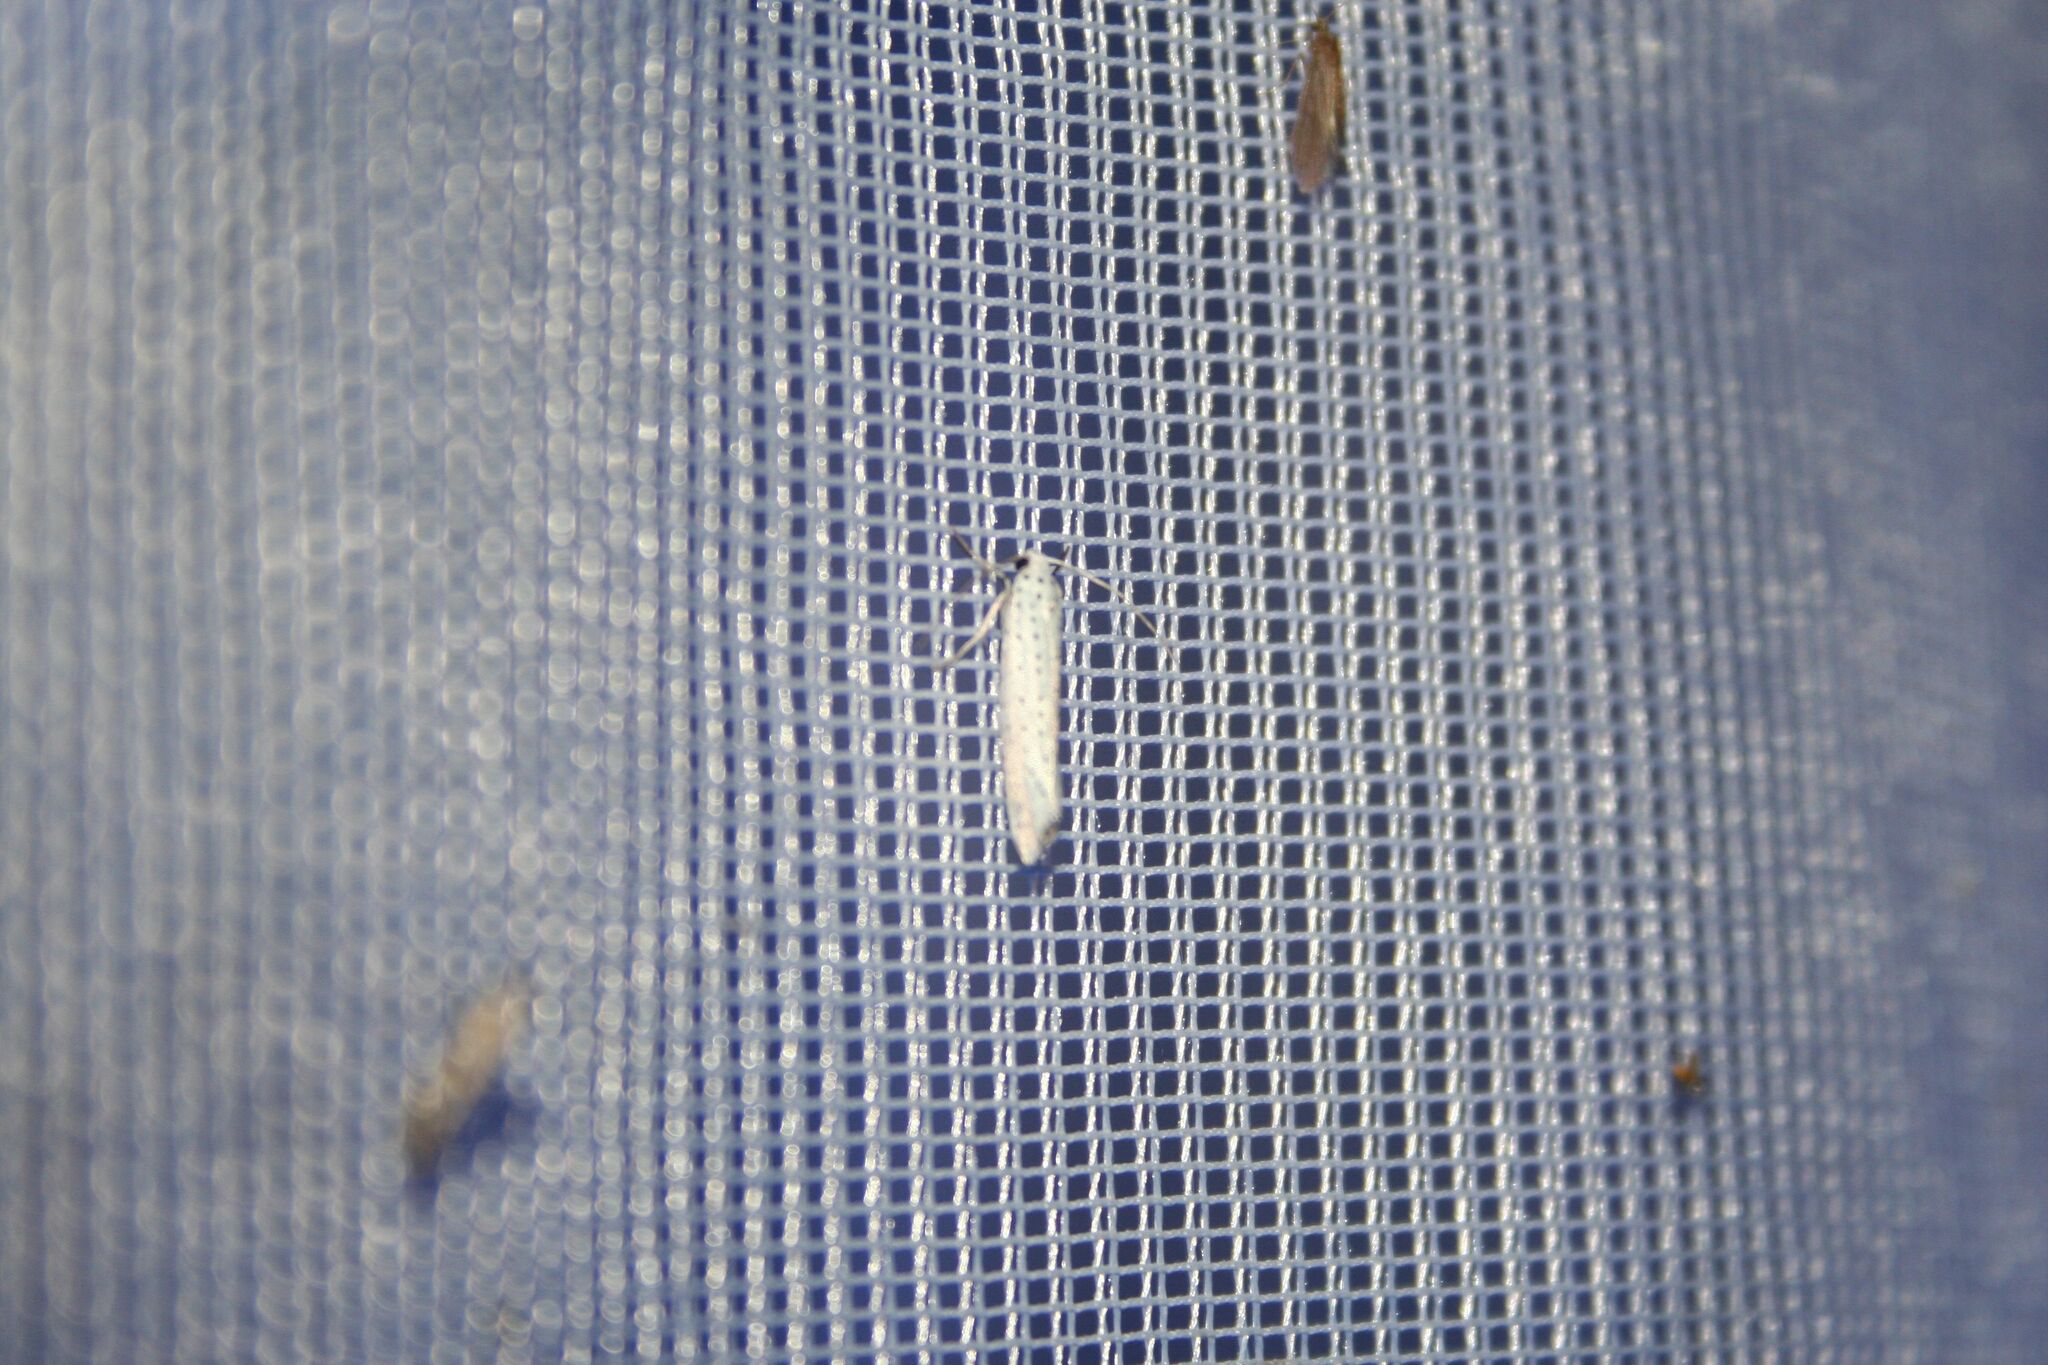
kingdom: Animalia
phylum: Arthropoda
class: Insecta
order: Lepidoptera
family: Yponomeutidae
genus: Yponomeuta
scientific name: Yponomeuta evonymella
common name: Bird-cherry ermine
